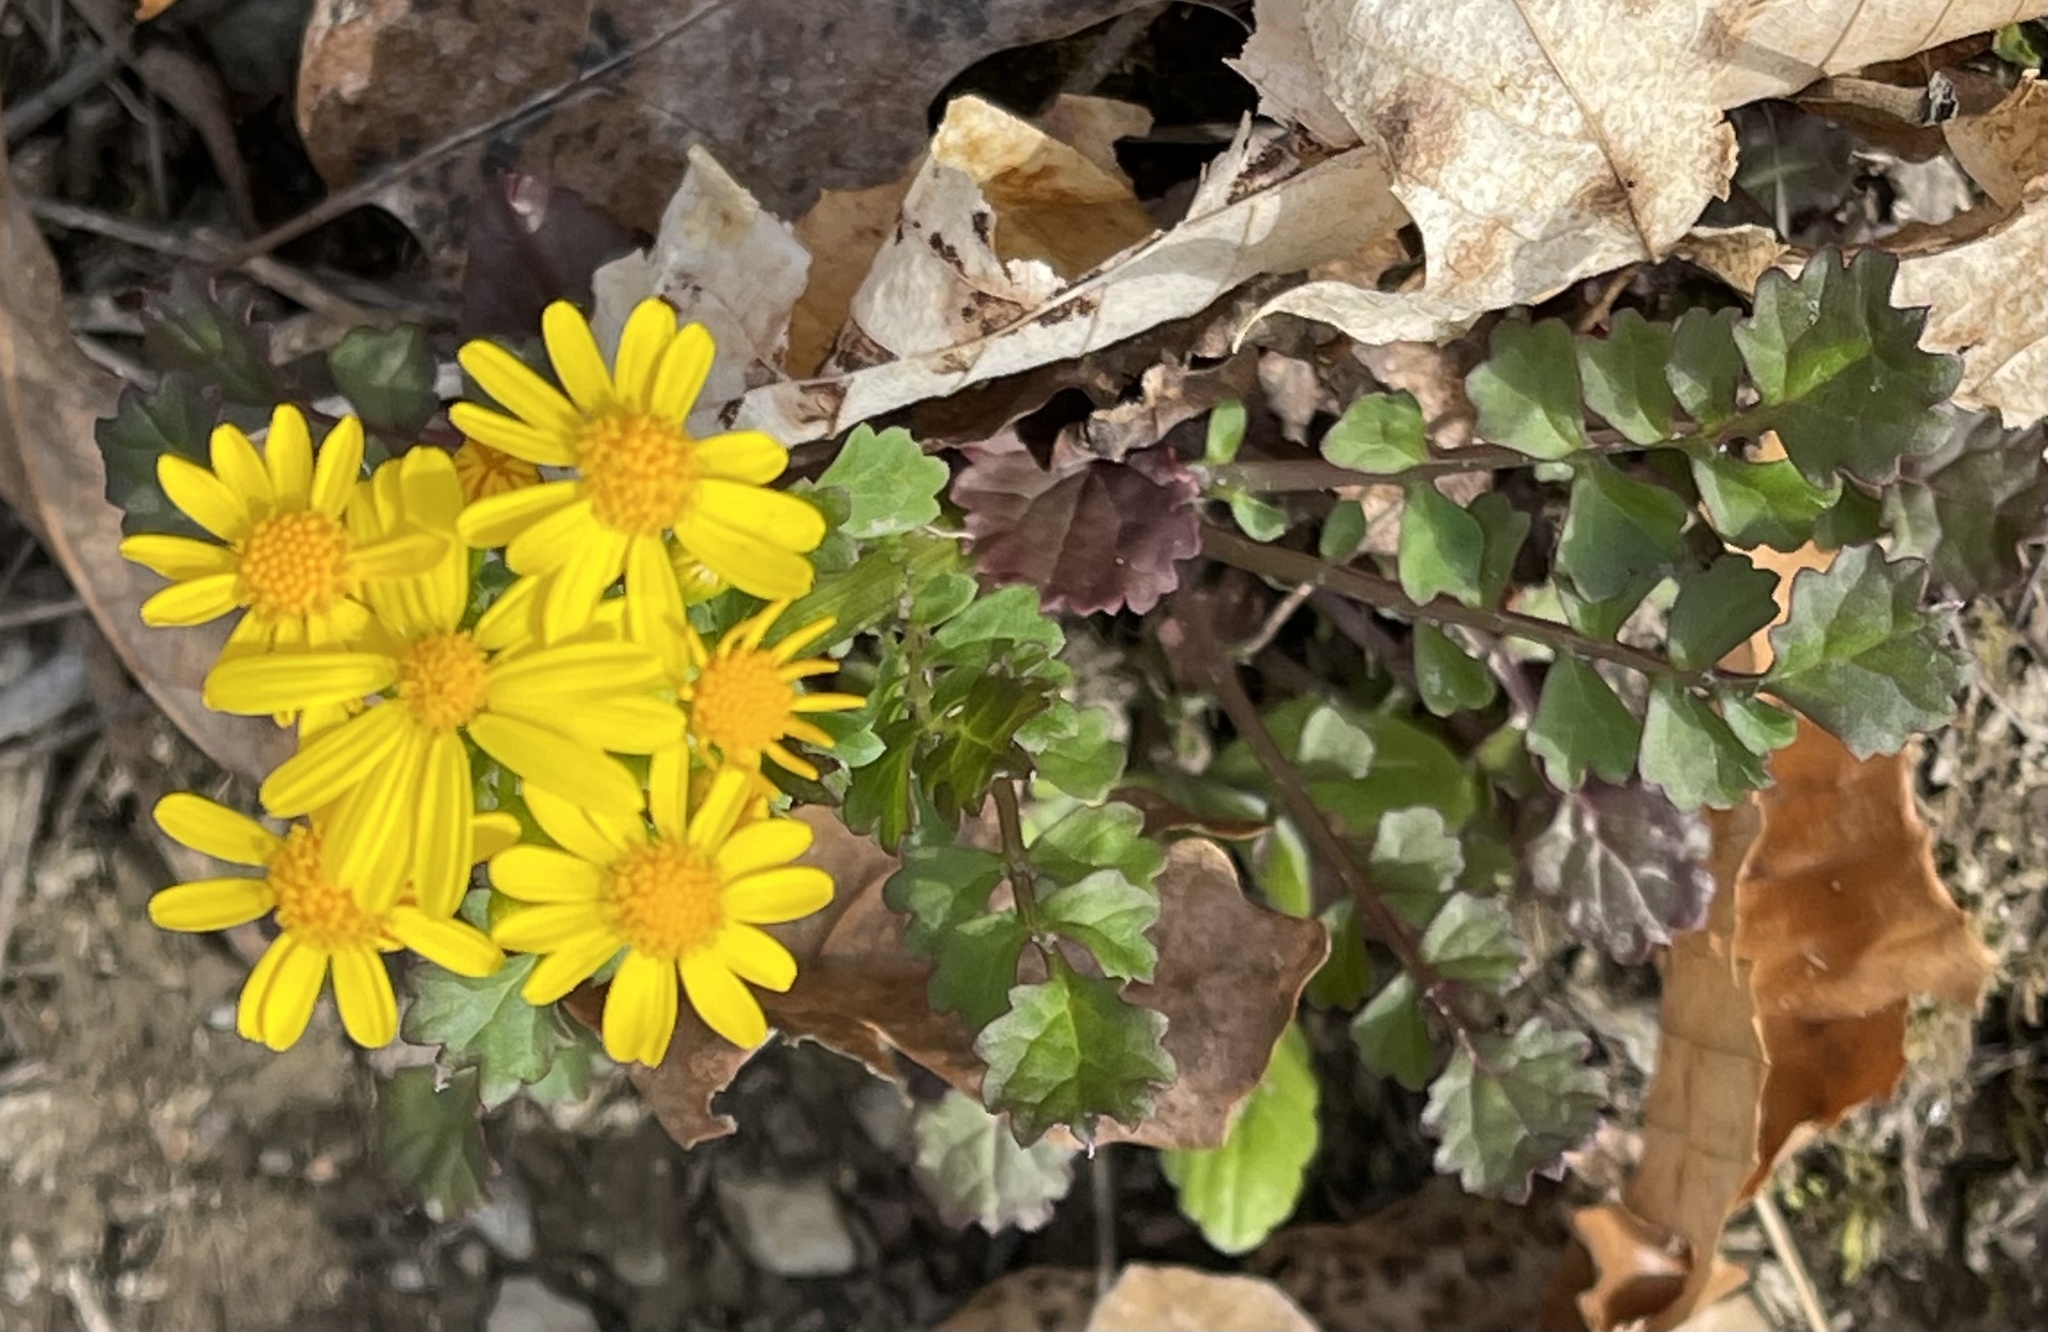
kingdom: Plantae
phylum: Tracheophyta
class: Magnoliopsida
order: Asterales
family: Asteraceae
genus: Packera
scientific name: Packera glabella
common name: Butterweed
